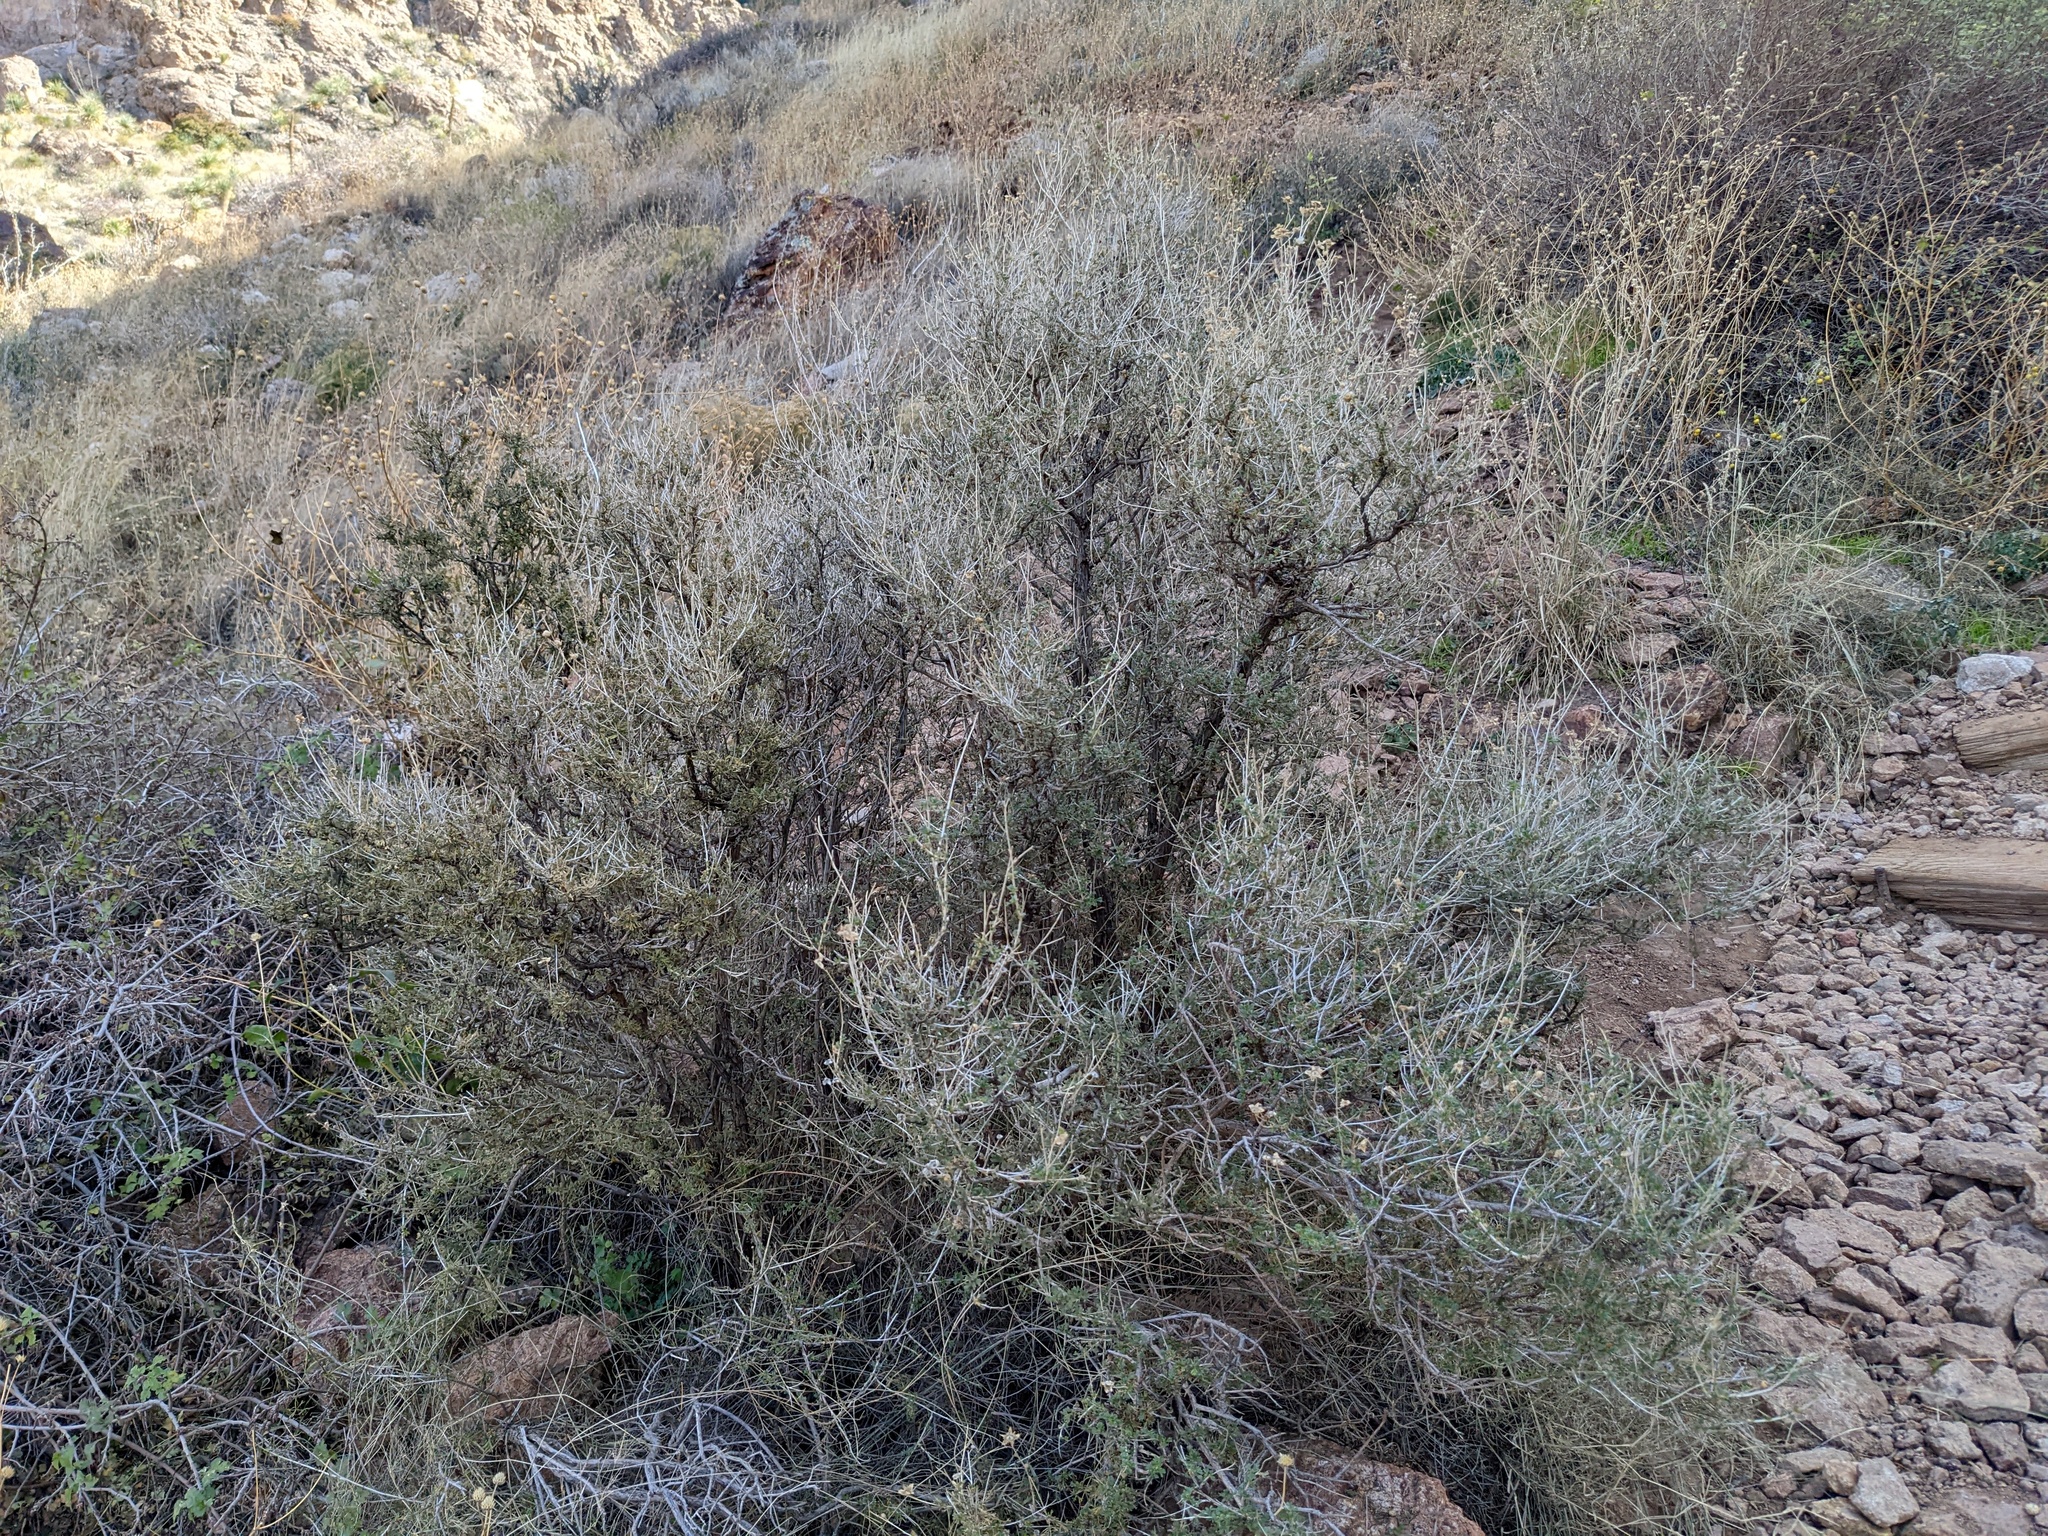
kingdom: Plantae
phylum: Tracheophyta
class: Magnoliopsida
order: Rosales
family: Rosaceae
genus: Fallugia
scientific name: Fallugia paradoxa
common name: Apache-plume
